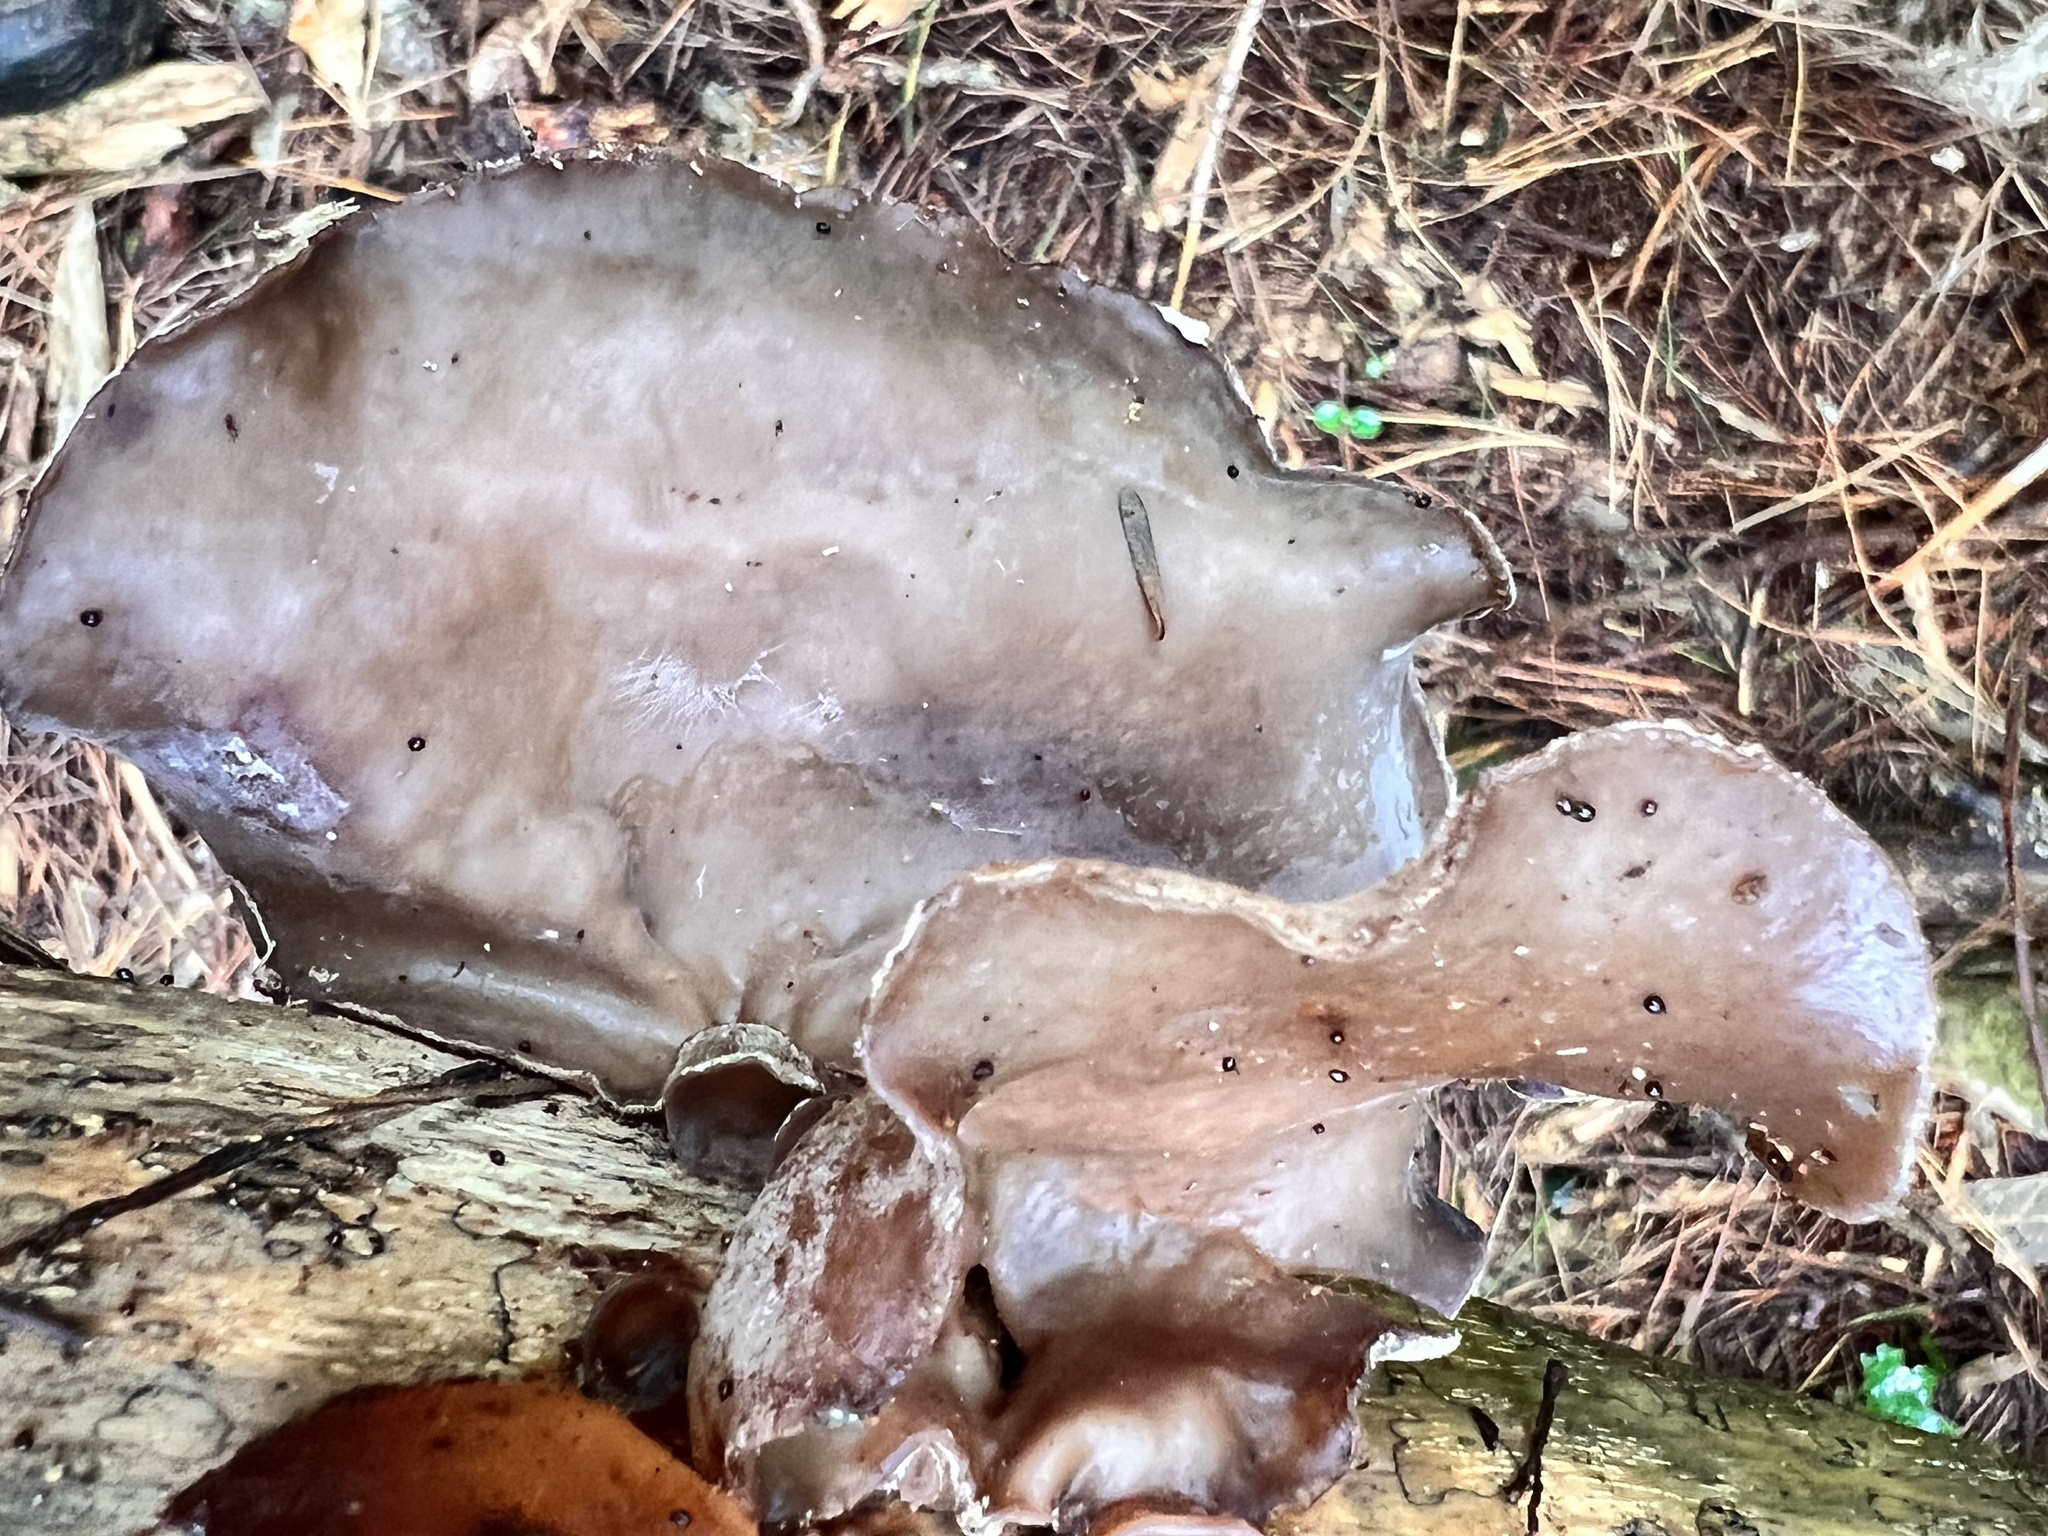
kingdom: Fungi
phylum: Basidiomycota
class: Agaricomycetes
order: Auriculariales
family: Auriculariaceae
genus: Auricularia
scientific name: Auricularia cornea
